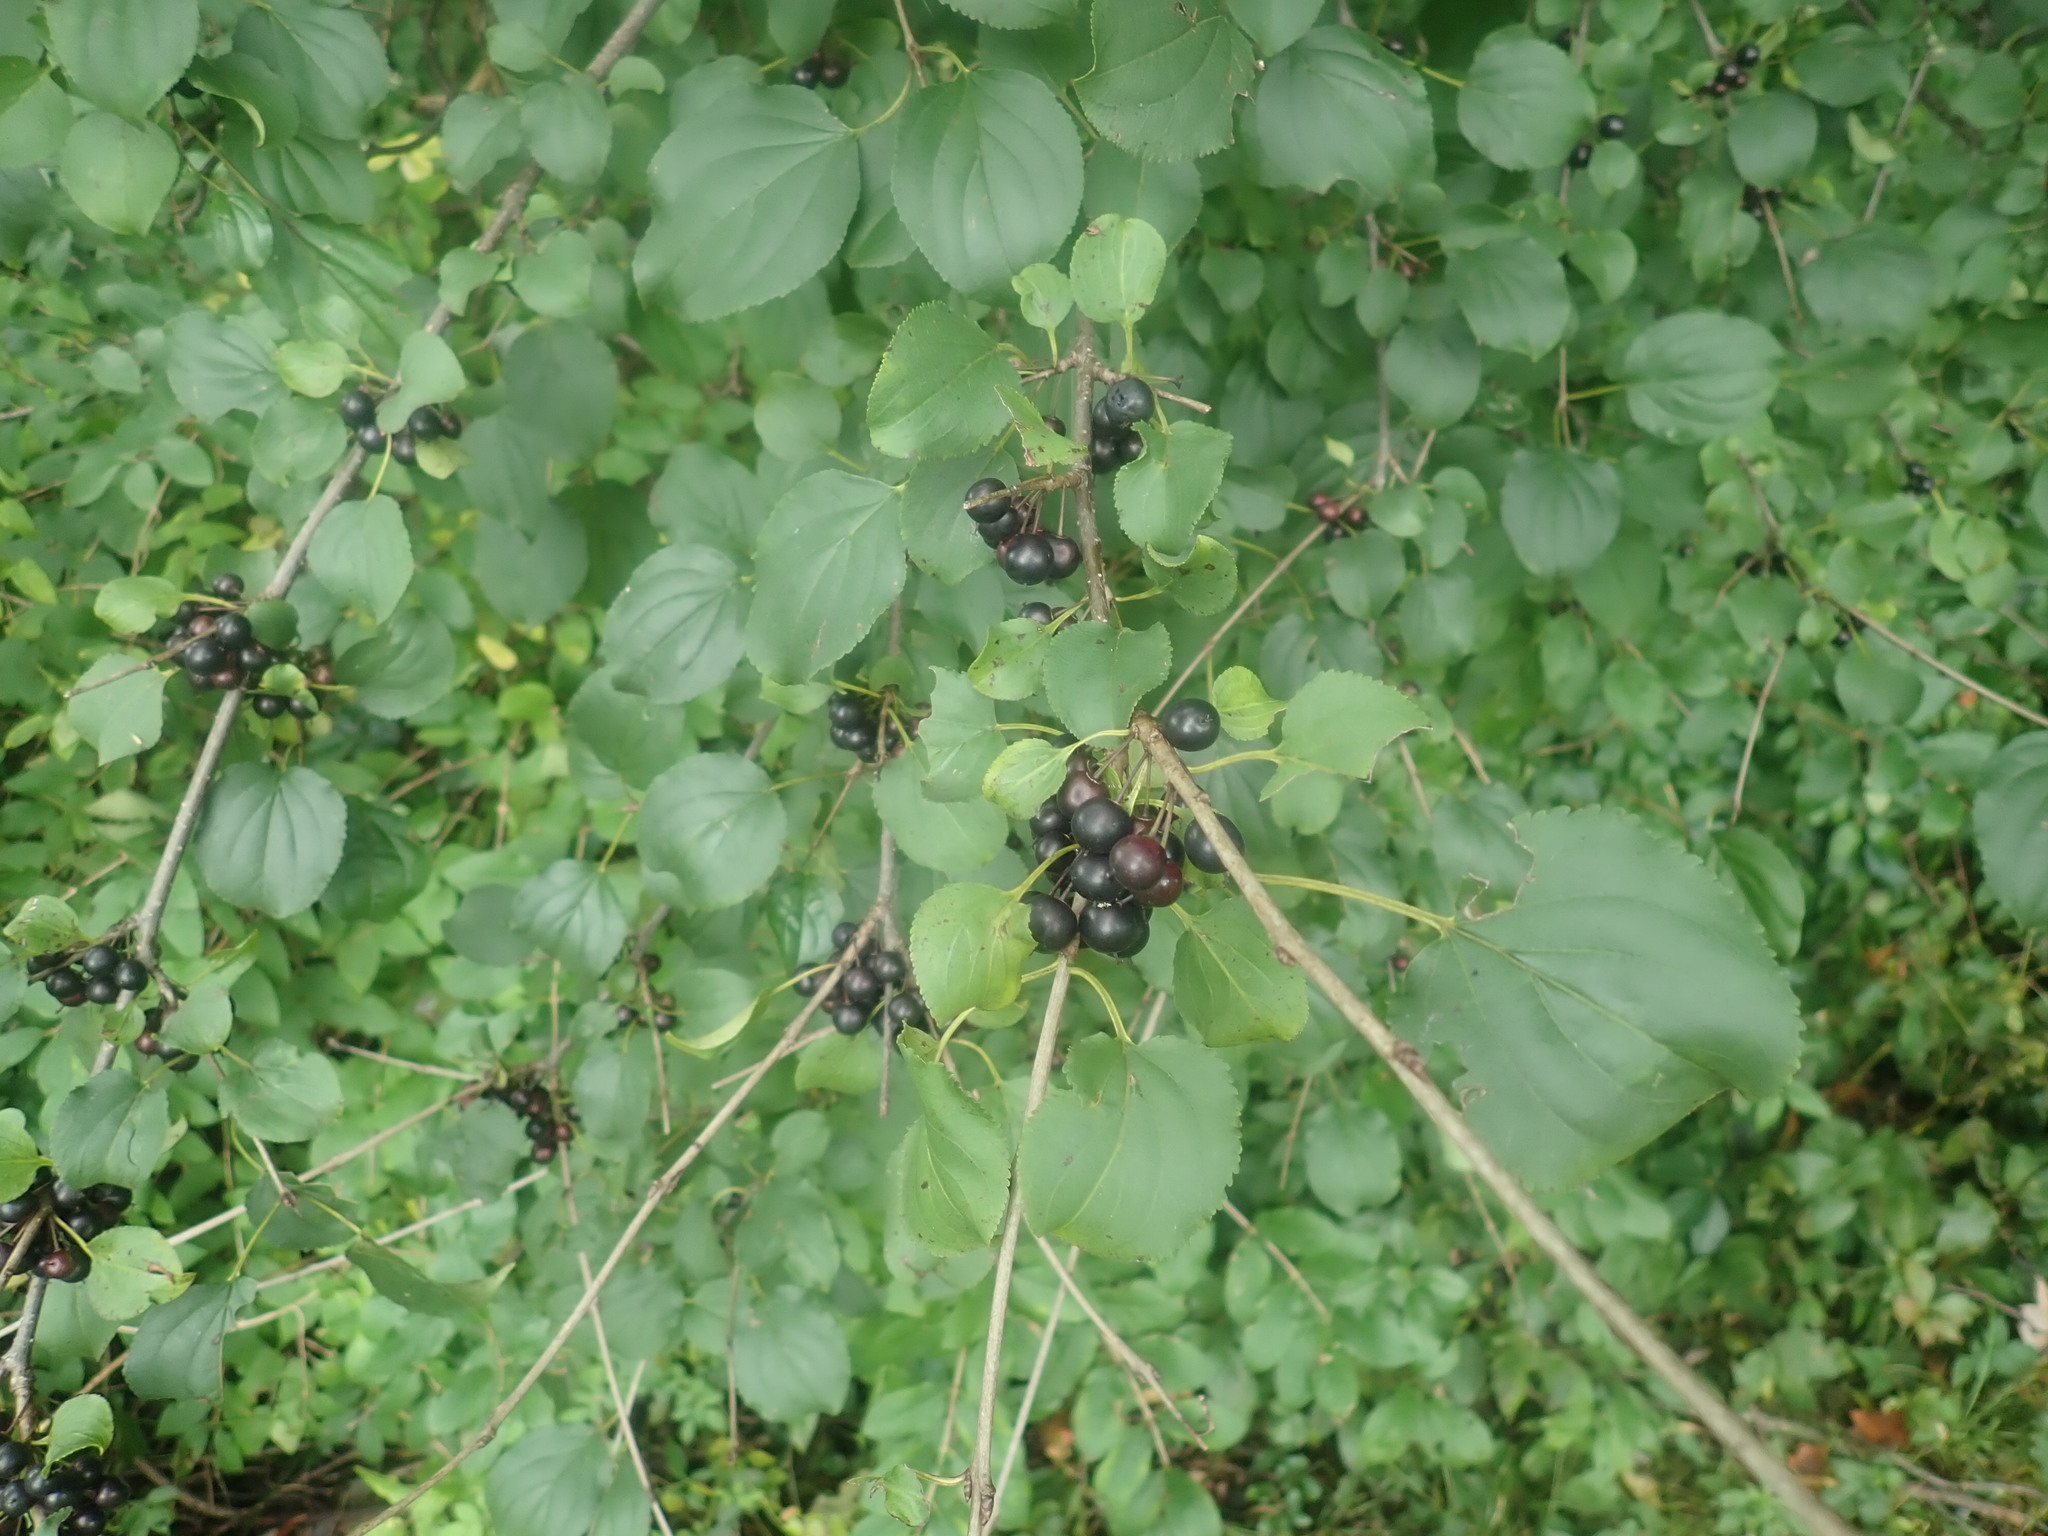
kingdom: Plantae
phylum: Tracheophyta
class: Magnoliopsida
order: Rosales
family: Rhamnaceae
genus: Rhamnus
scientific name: Rhamnus cathartica
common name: Common buckthorn
